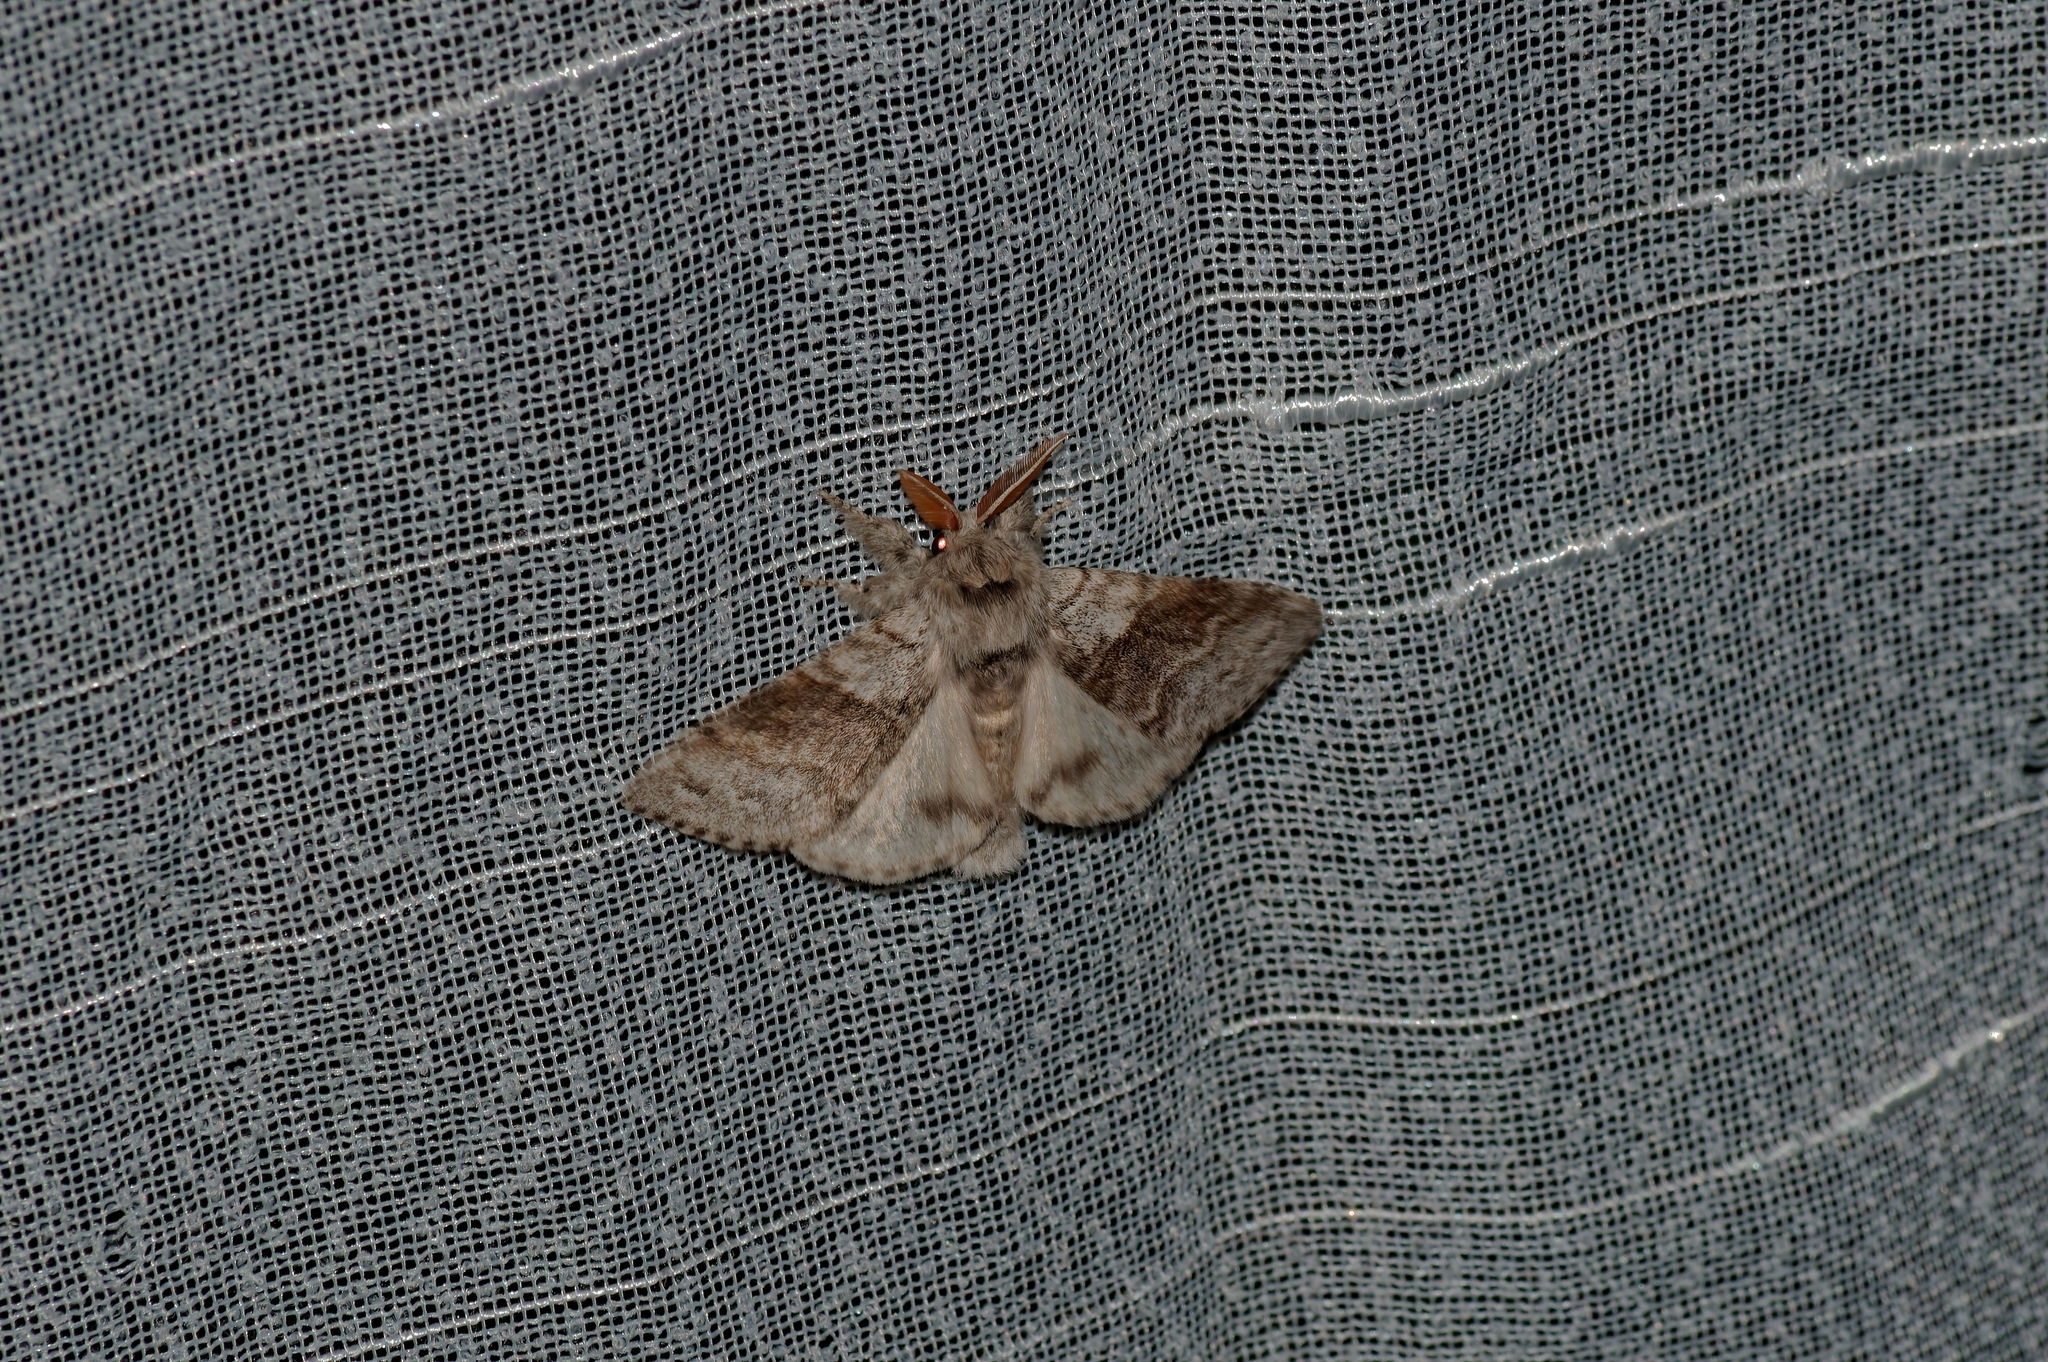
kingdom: Animalia
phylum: Arthropoda
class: Insecta
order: Lepidoptera
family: Erebidae
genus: Calliteara
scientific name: Calliteara pudibunda
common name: Pale tussock
